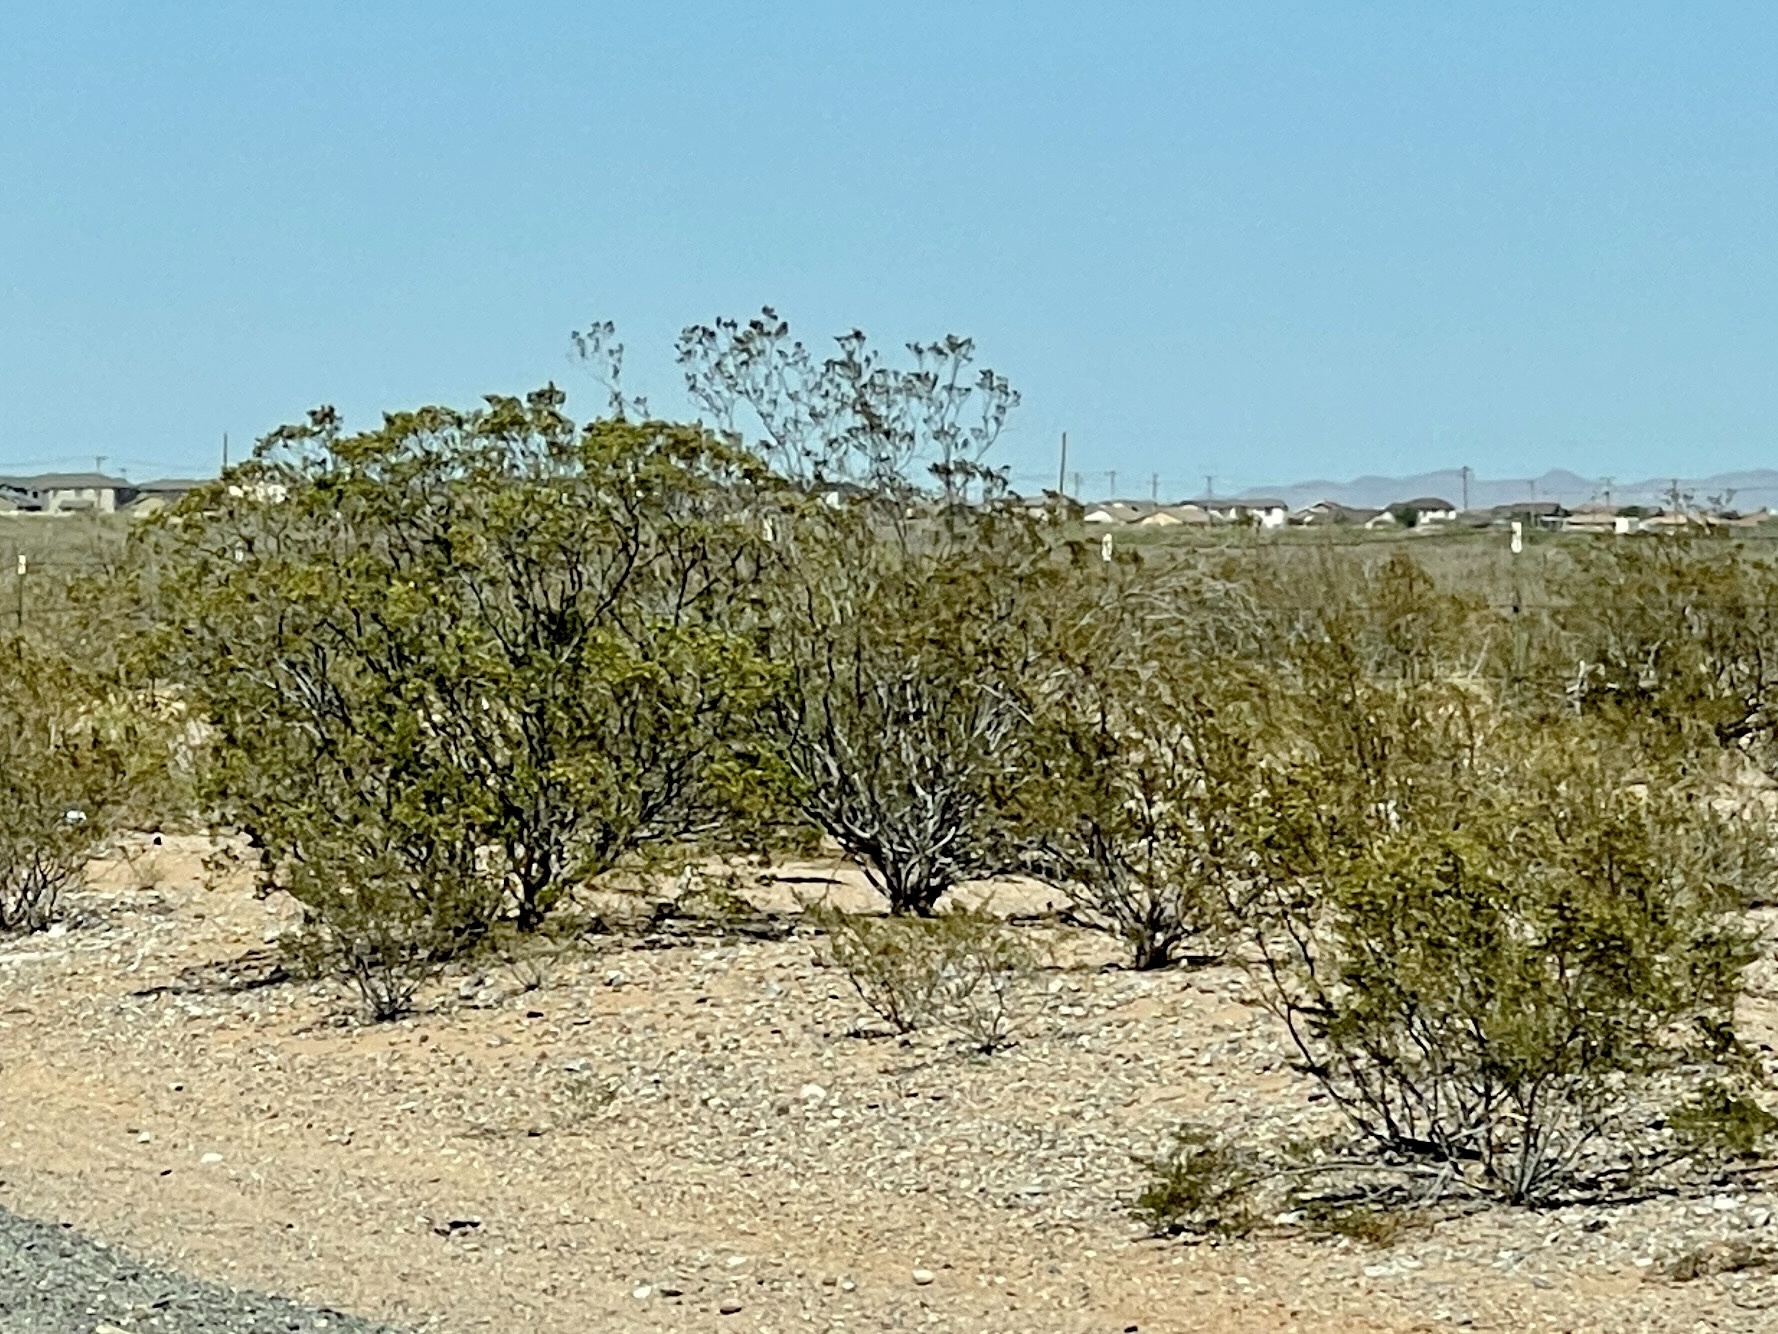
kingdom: Plantae
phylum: Tracheophyta
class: Magnoliopsida
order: Zygophyllales
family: Zygophyllaceae
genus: Larrea
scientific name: Larrea tridentata
